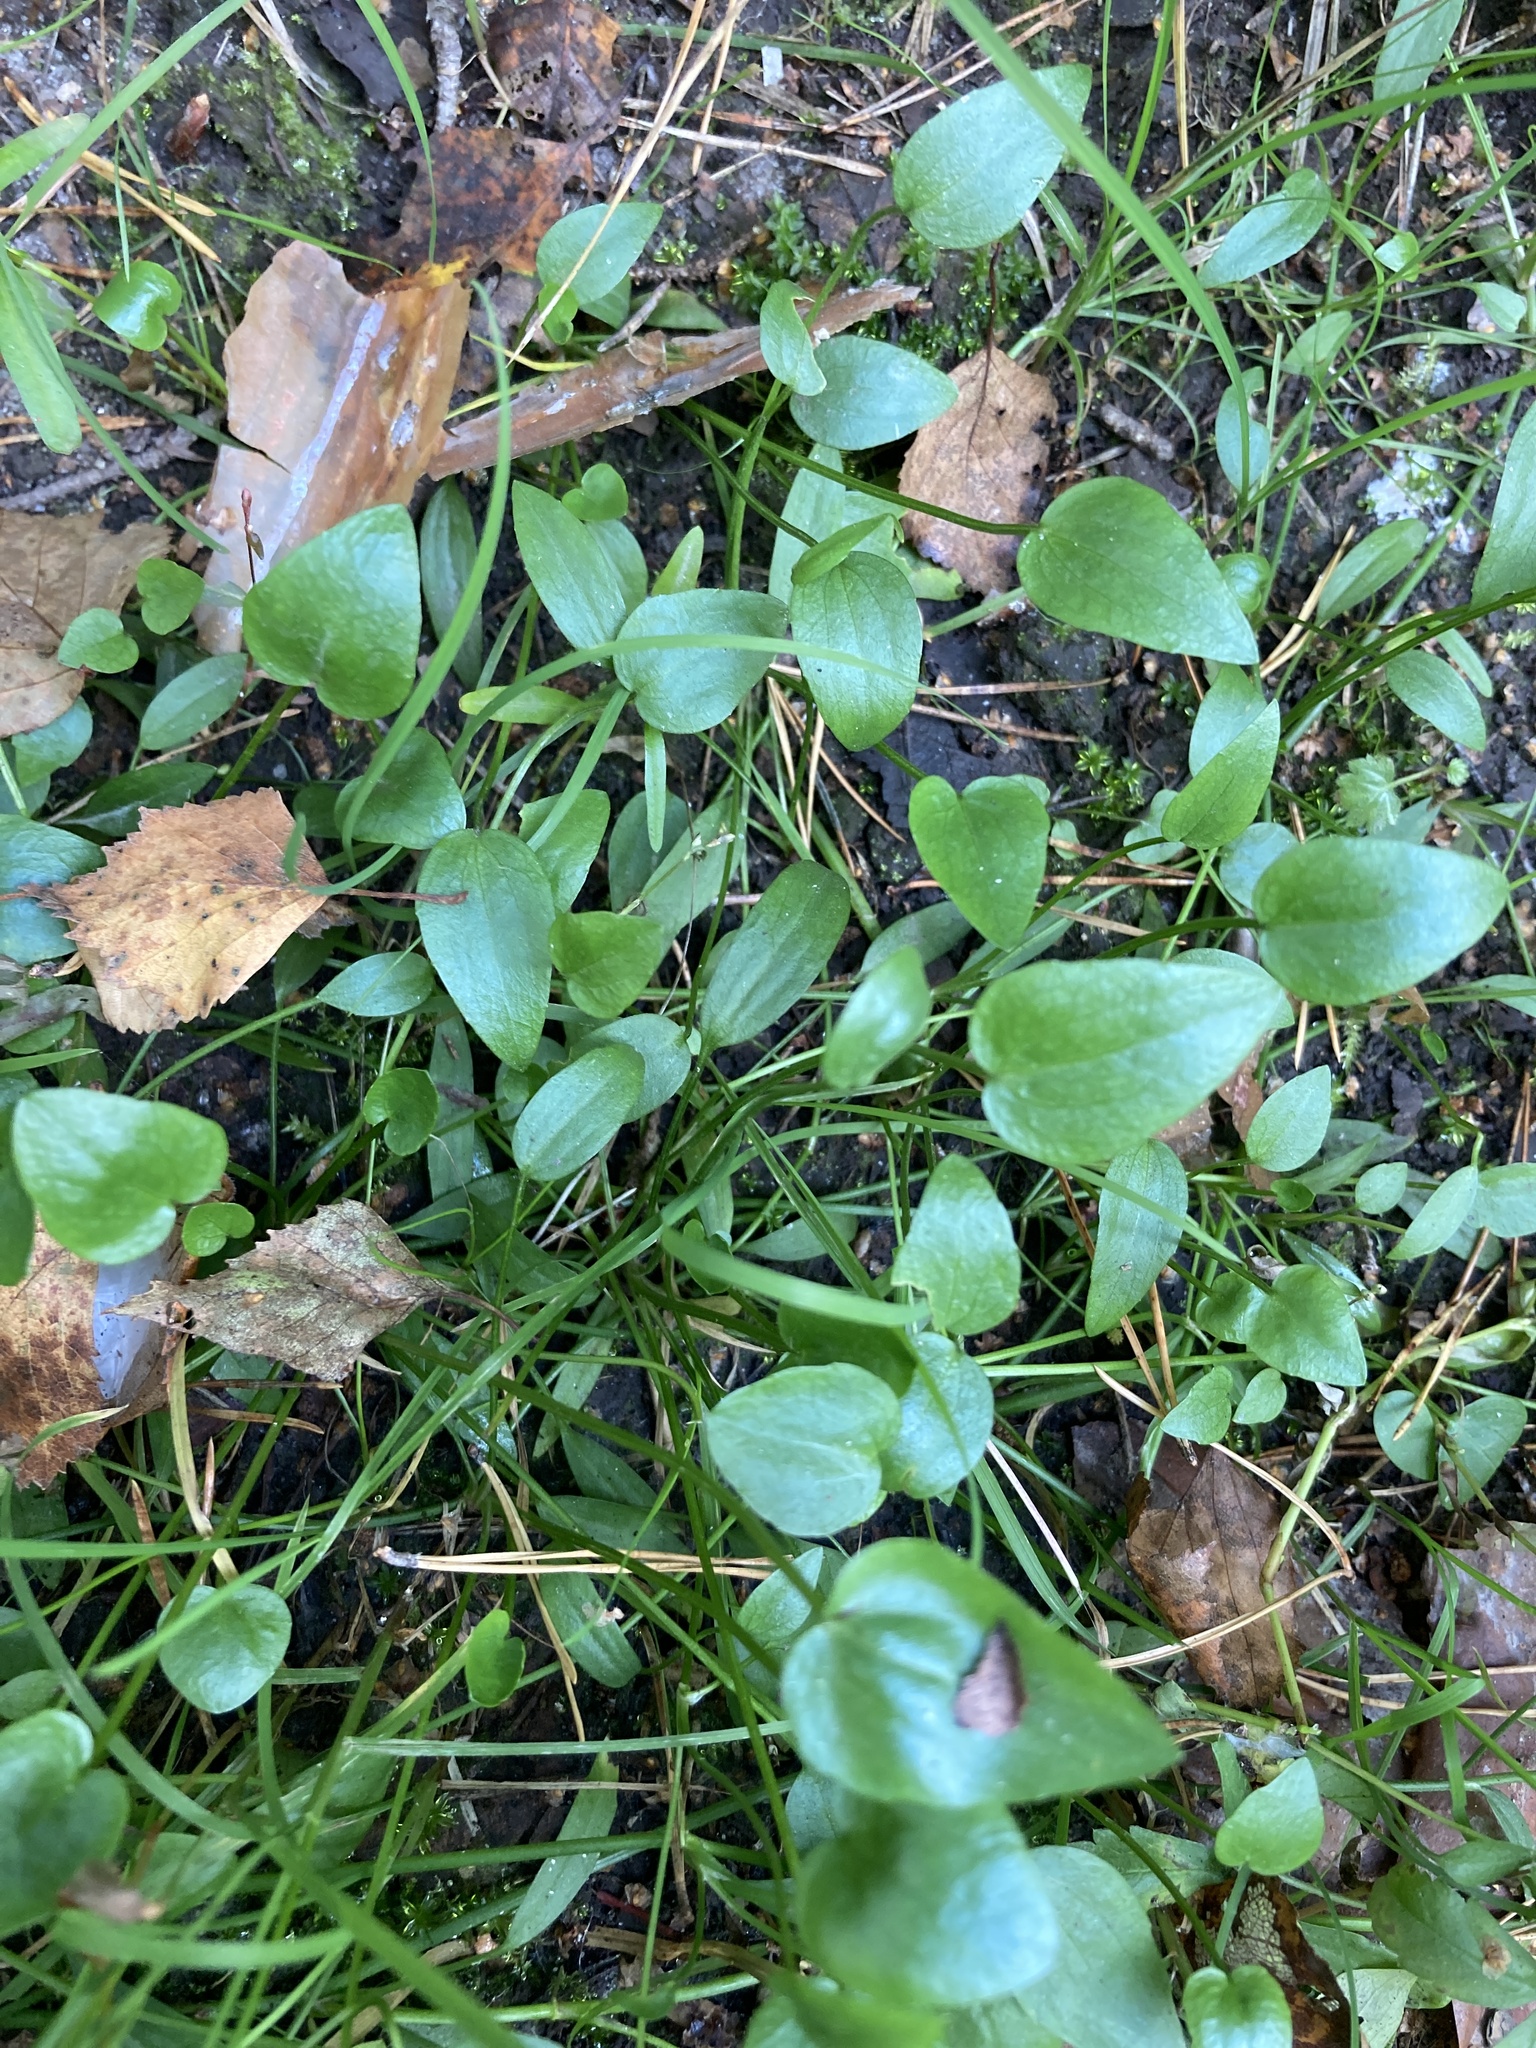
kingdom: Plantae
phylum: Tracheophyta
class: Magnoliopsida
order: Ranunculales
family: Ranunculaceae
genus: Ranunculus
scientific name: Ranunculus flammula
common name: Lesser spearwort
